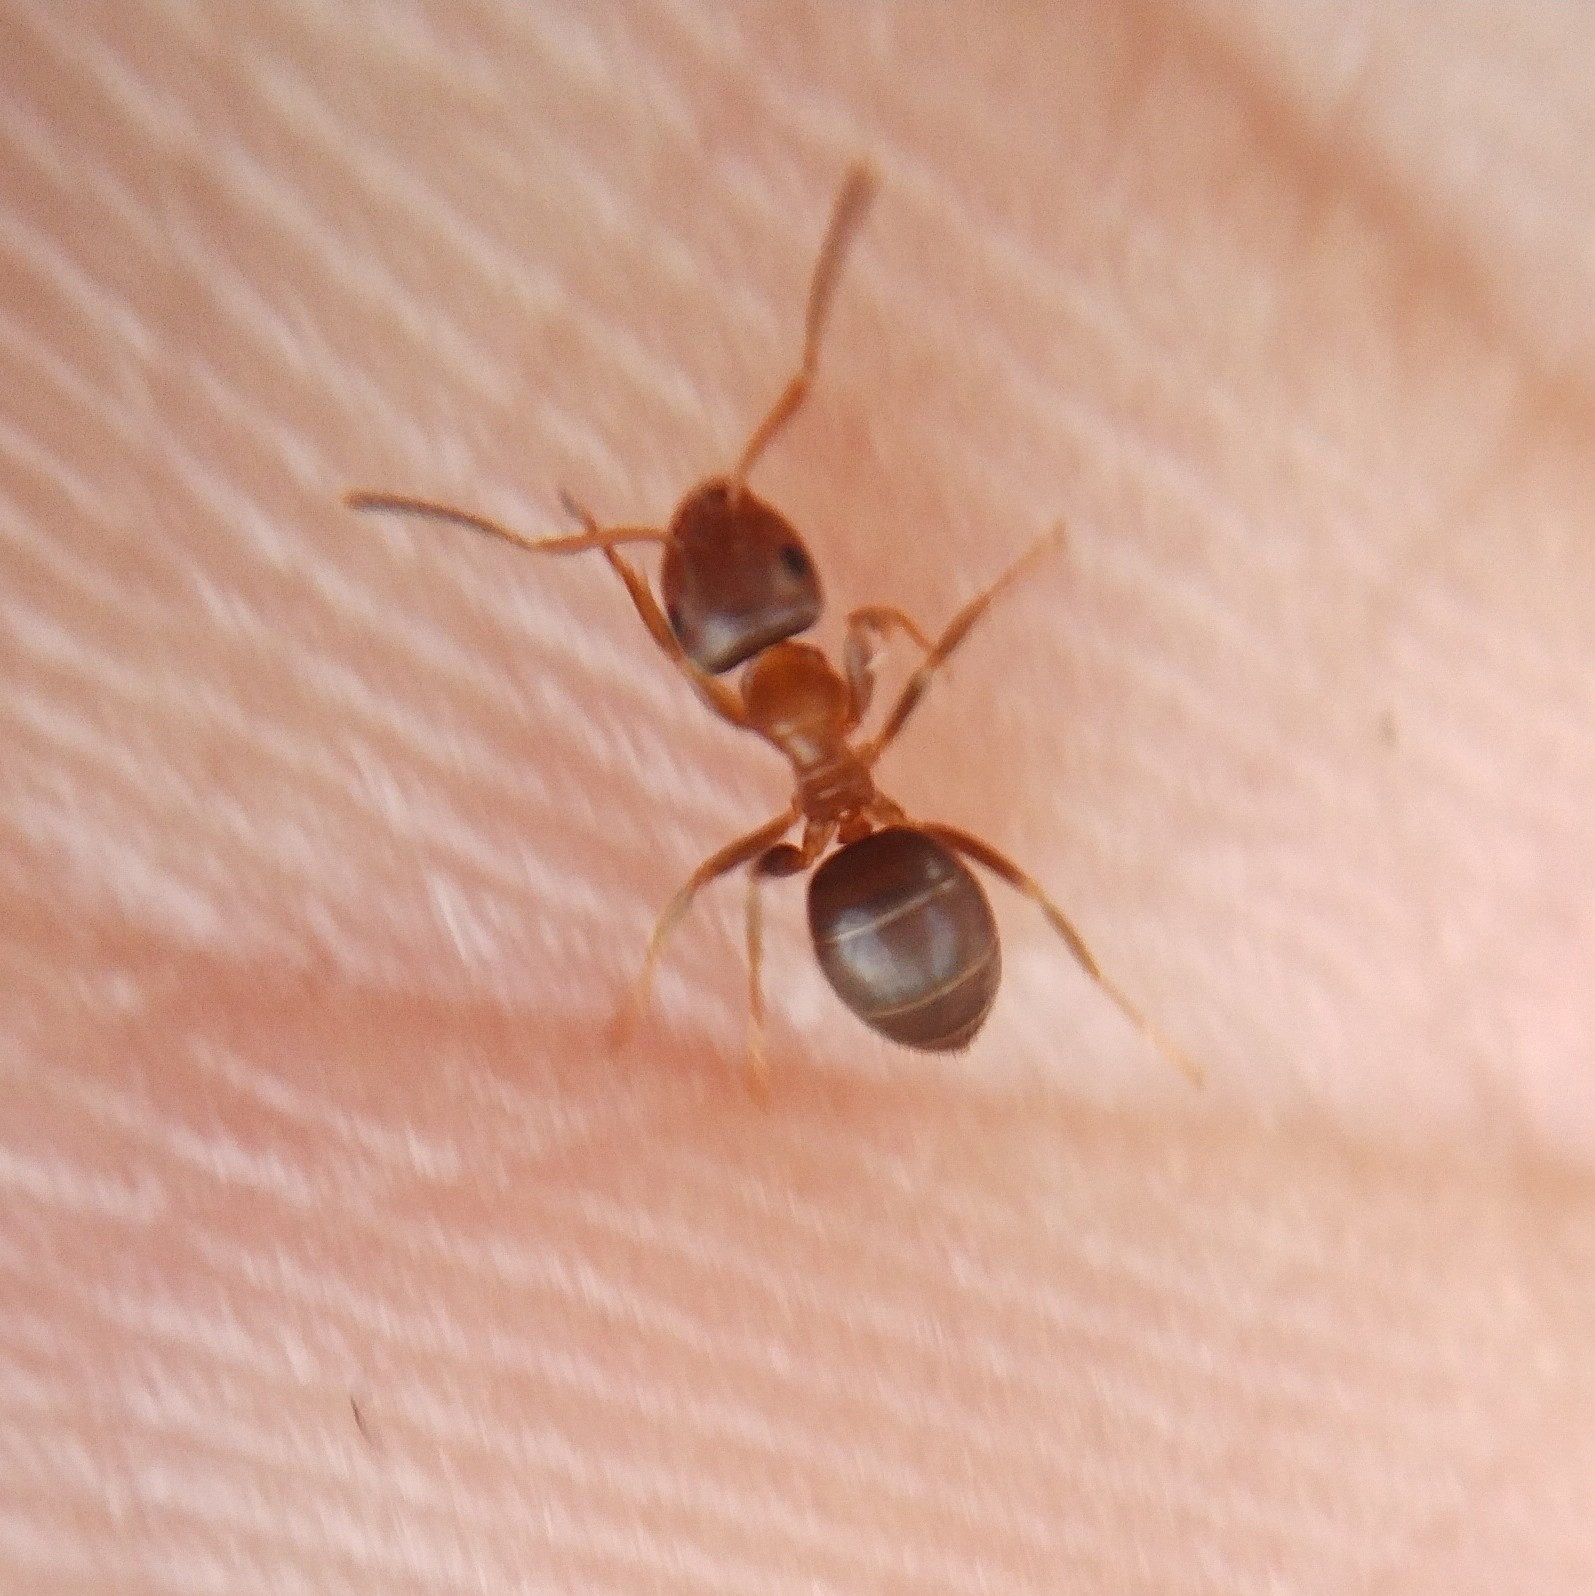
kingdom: Animalia
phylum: Arthropoda
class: Insecta
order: Hymenoptera
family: Formicidae
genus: Lasius
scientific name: Lasius brunneus
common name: Brown ant
